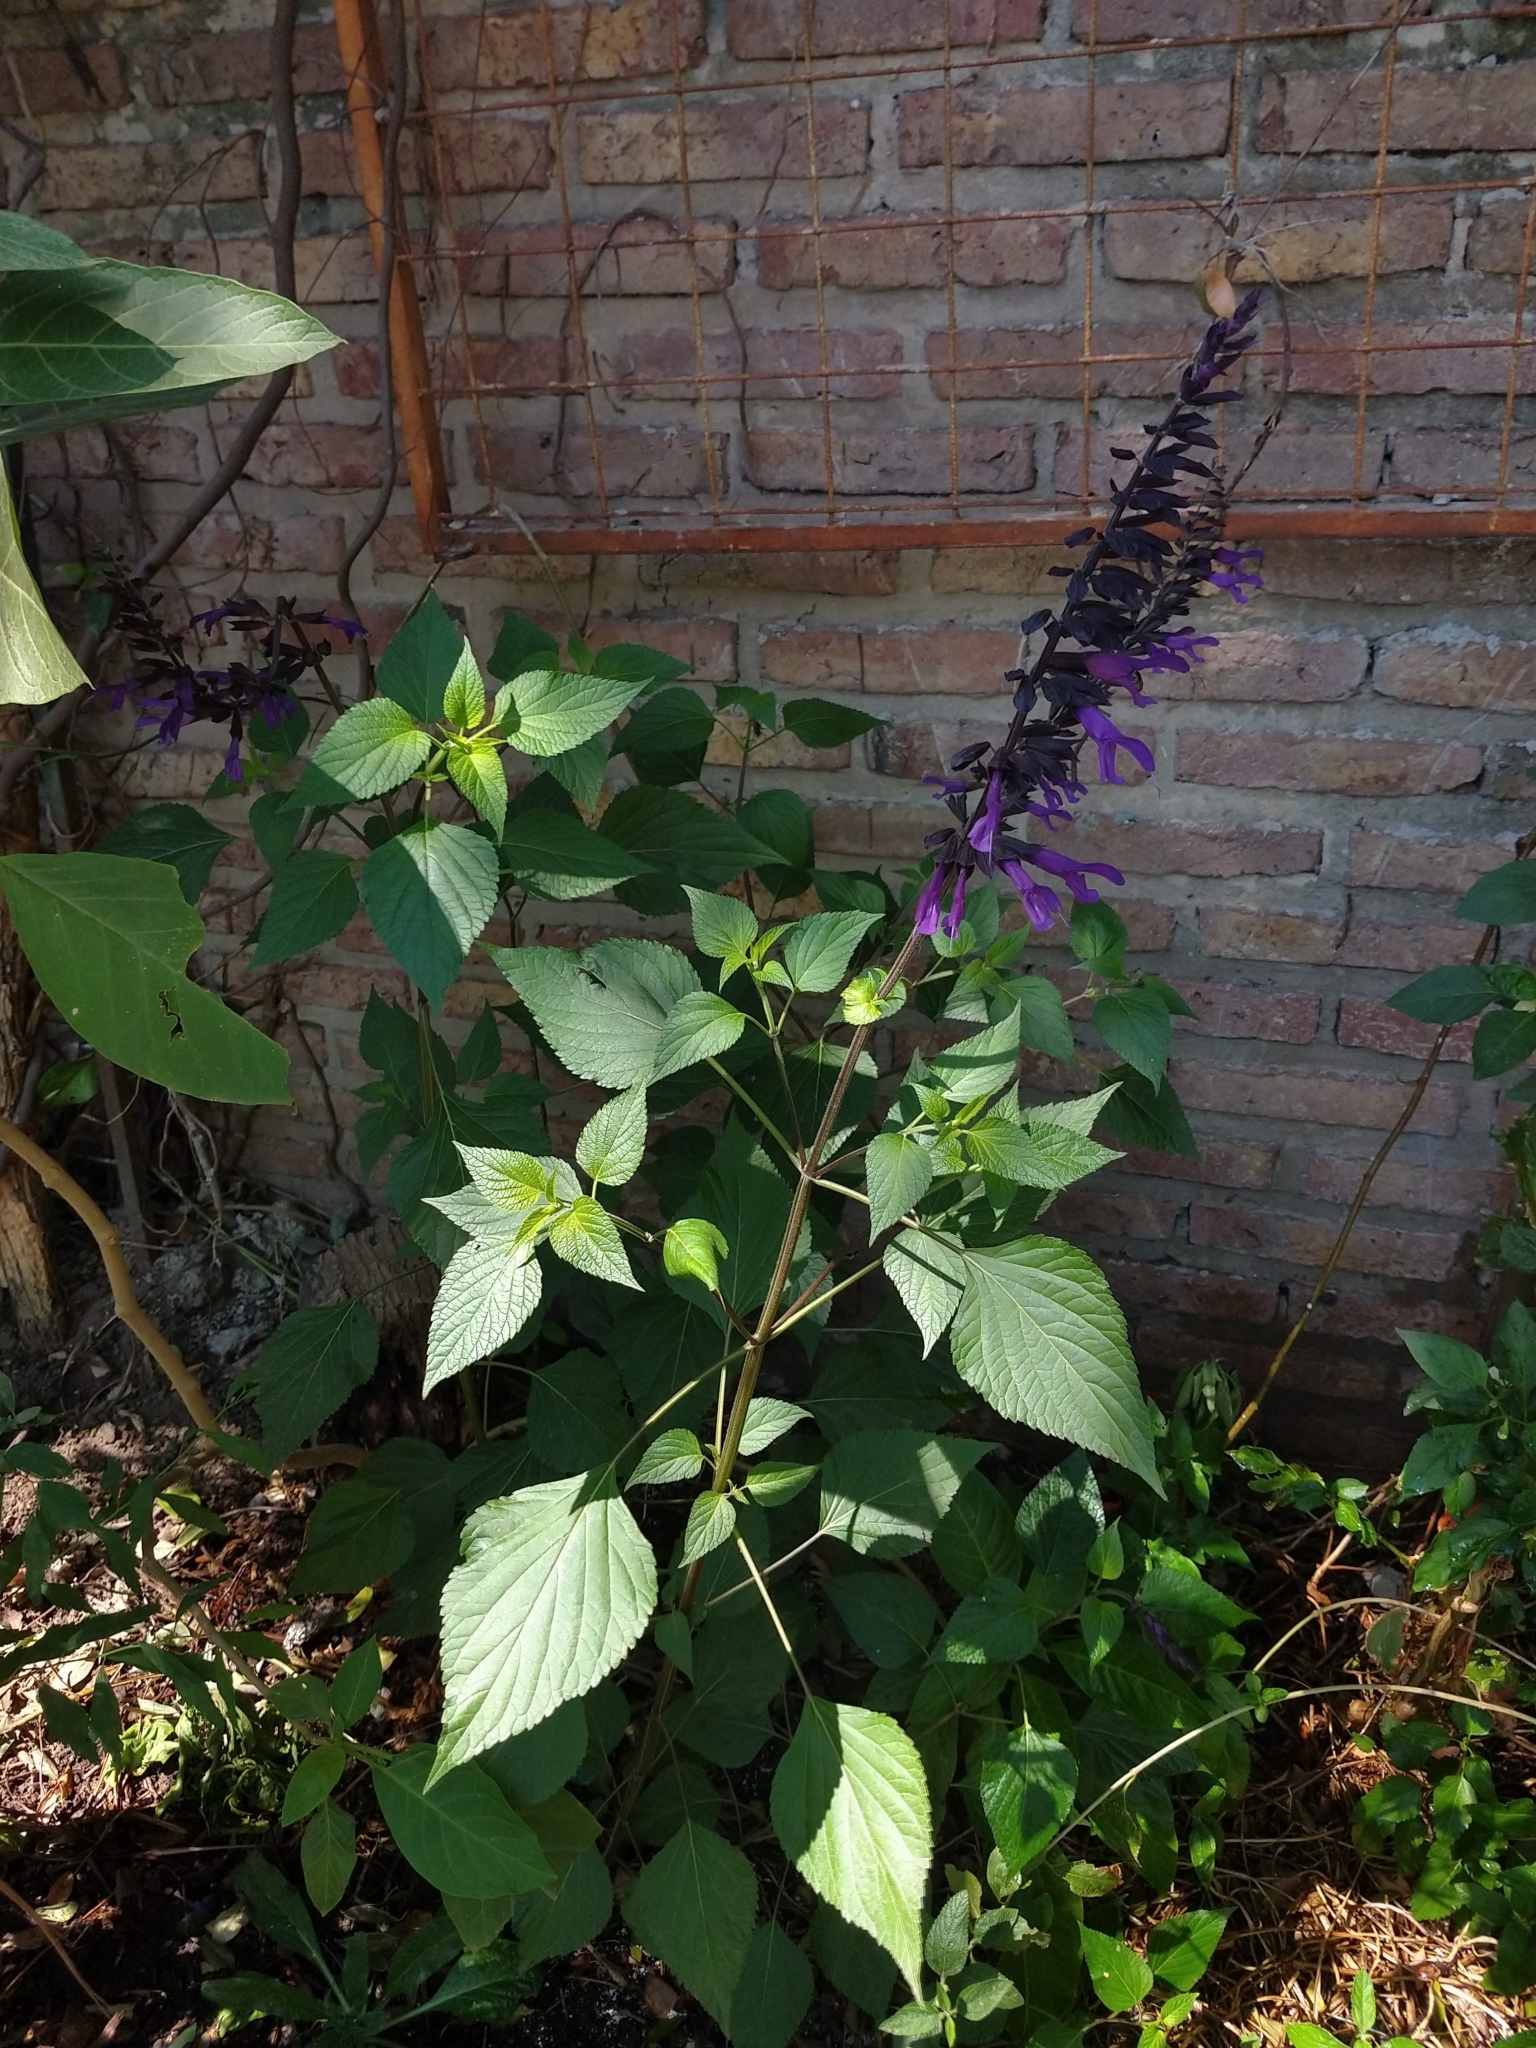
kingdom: Plantae
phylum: Tracheophyta
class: Magnoliopsida
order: Lamiales
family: Lamiaceae
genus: Salvia
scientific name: Salvia guaranitica
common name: Anise-scented sage
